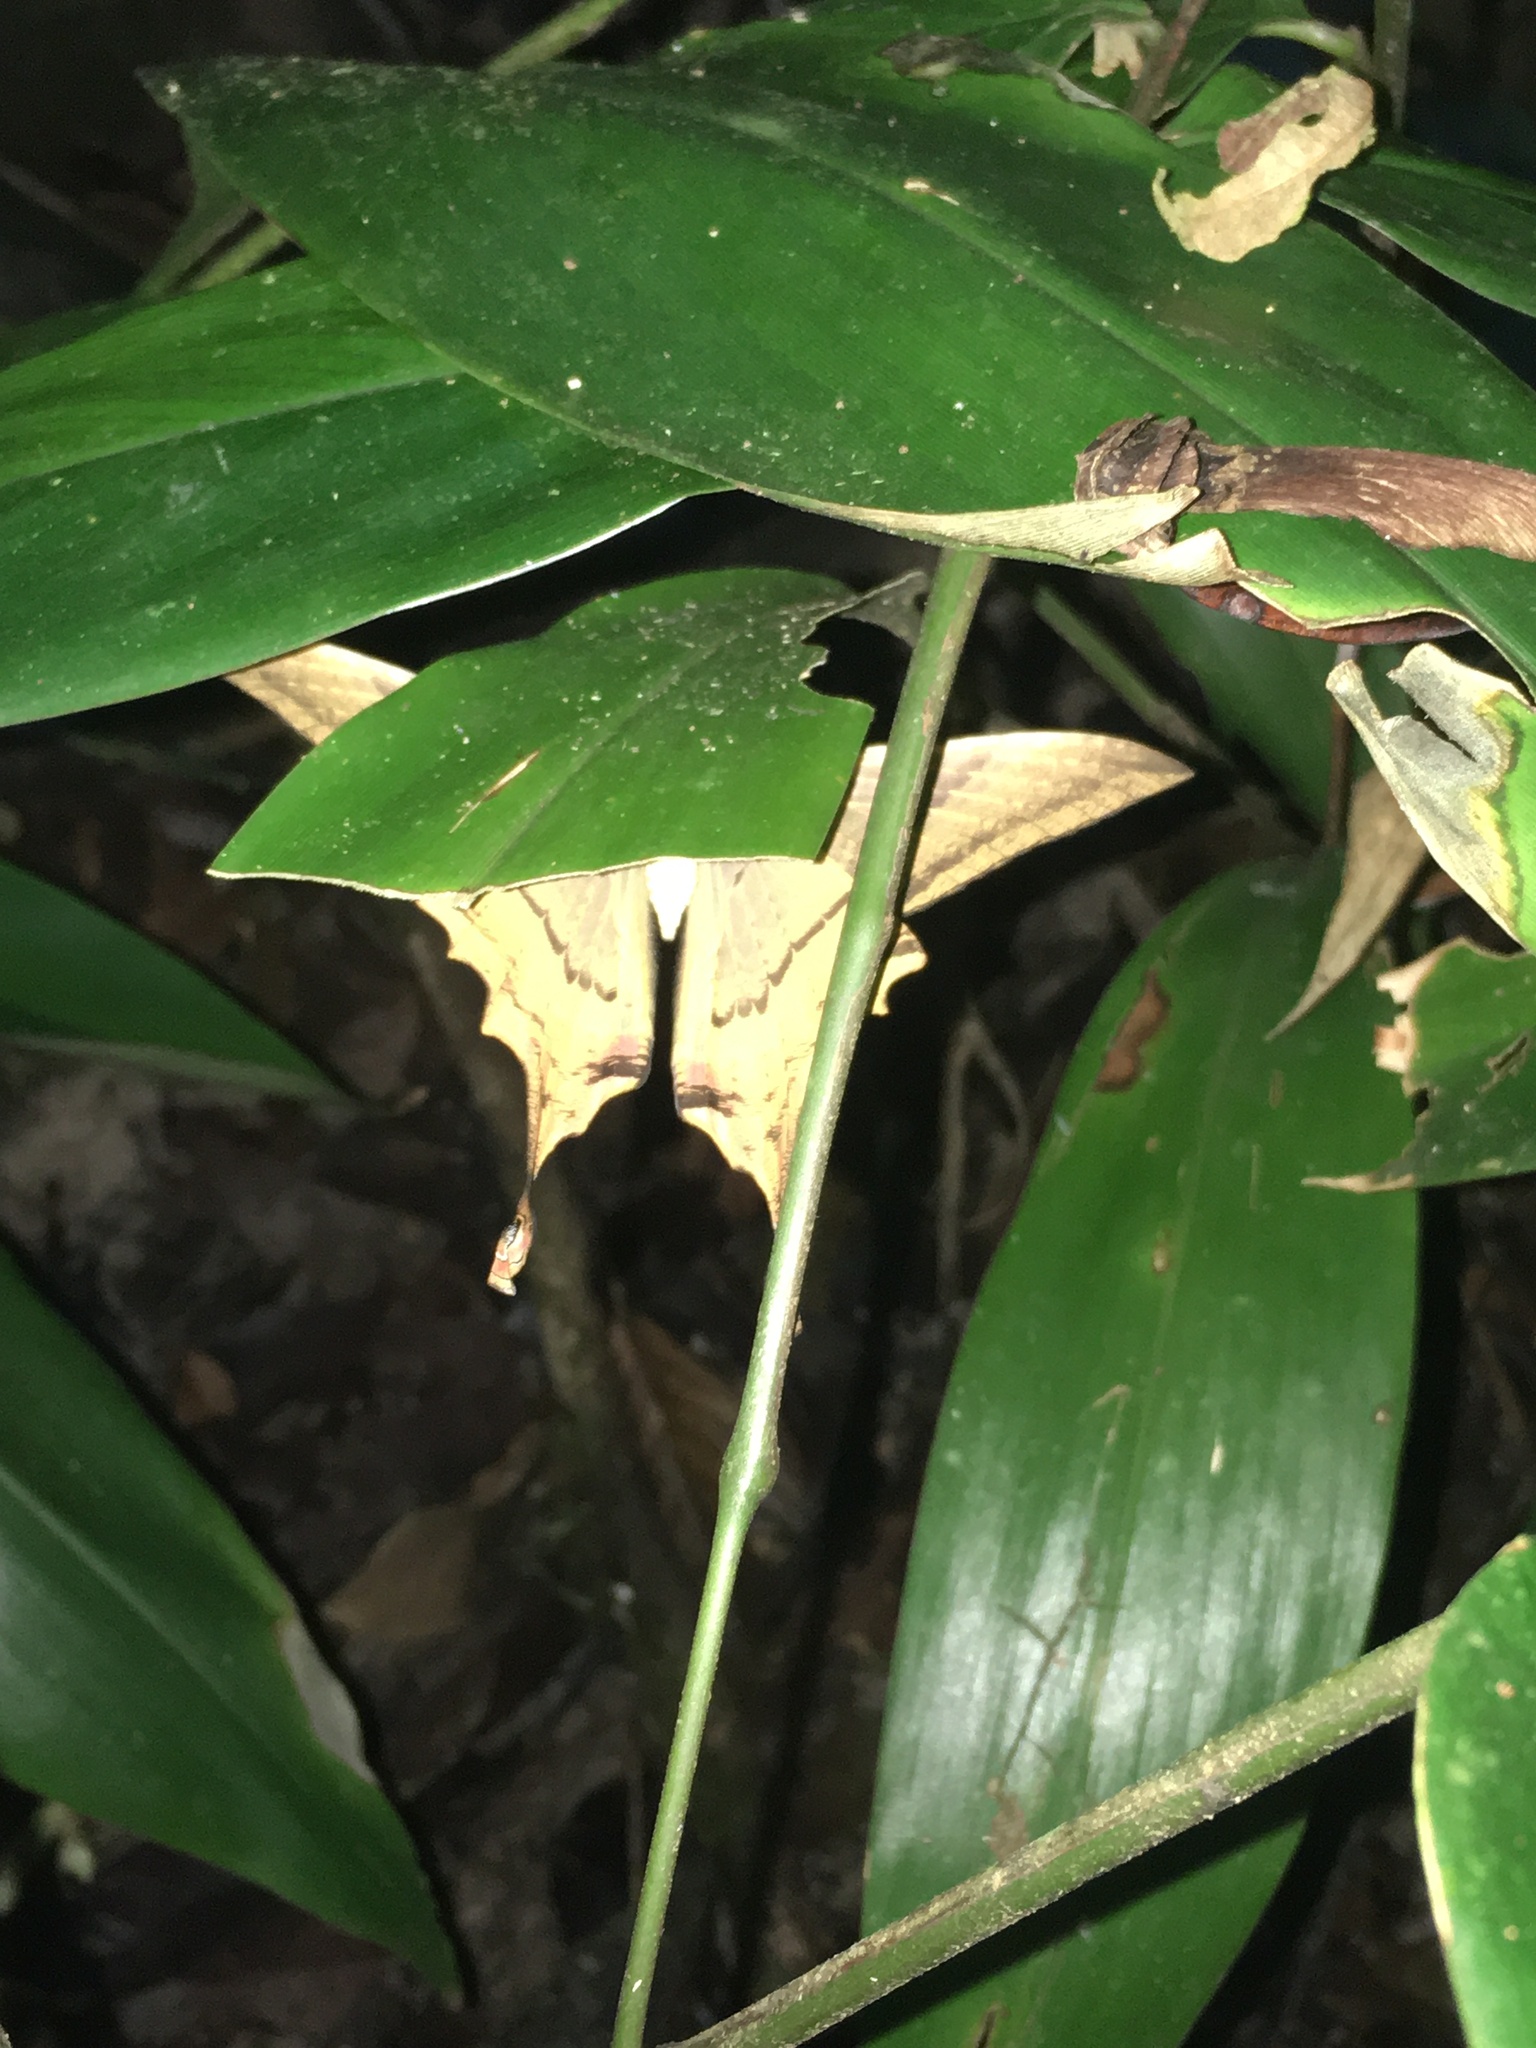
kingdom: Animalia
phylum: Arthropoda
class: Insecta
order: Lepidoptera
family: Sematuridae
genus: Nothus
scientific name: Nothus lunus
